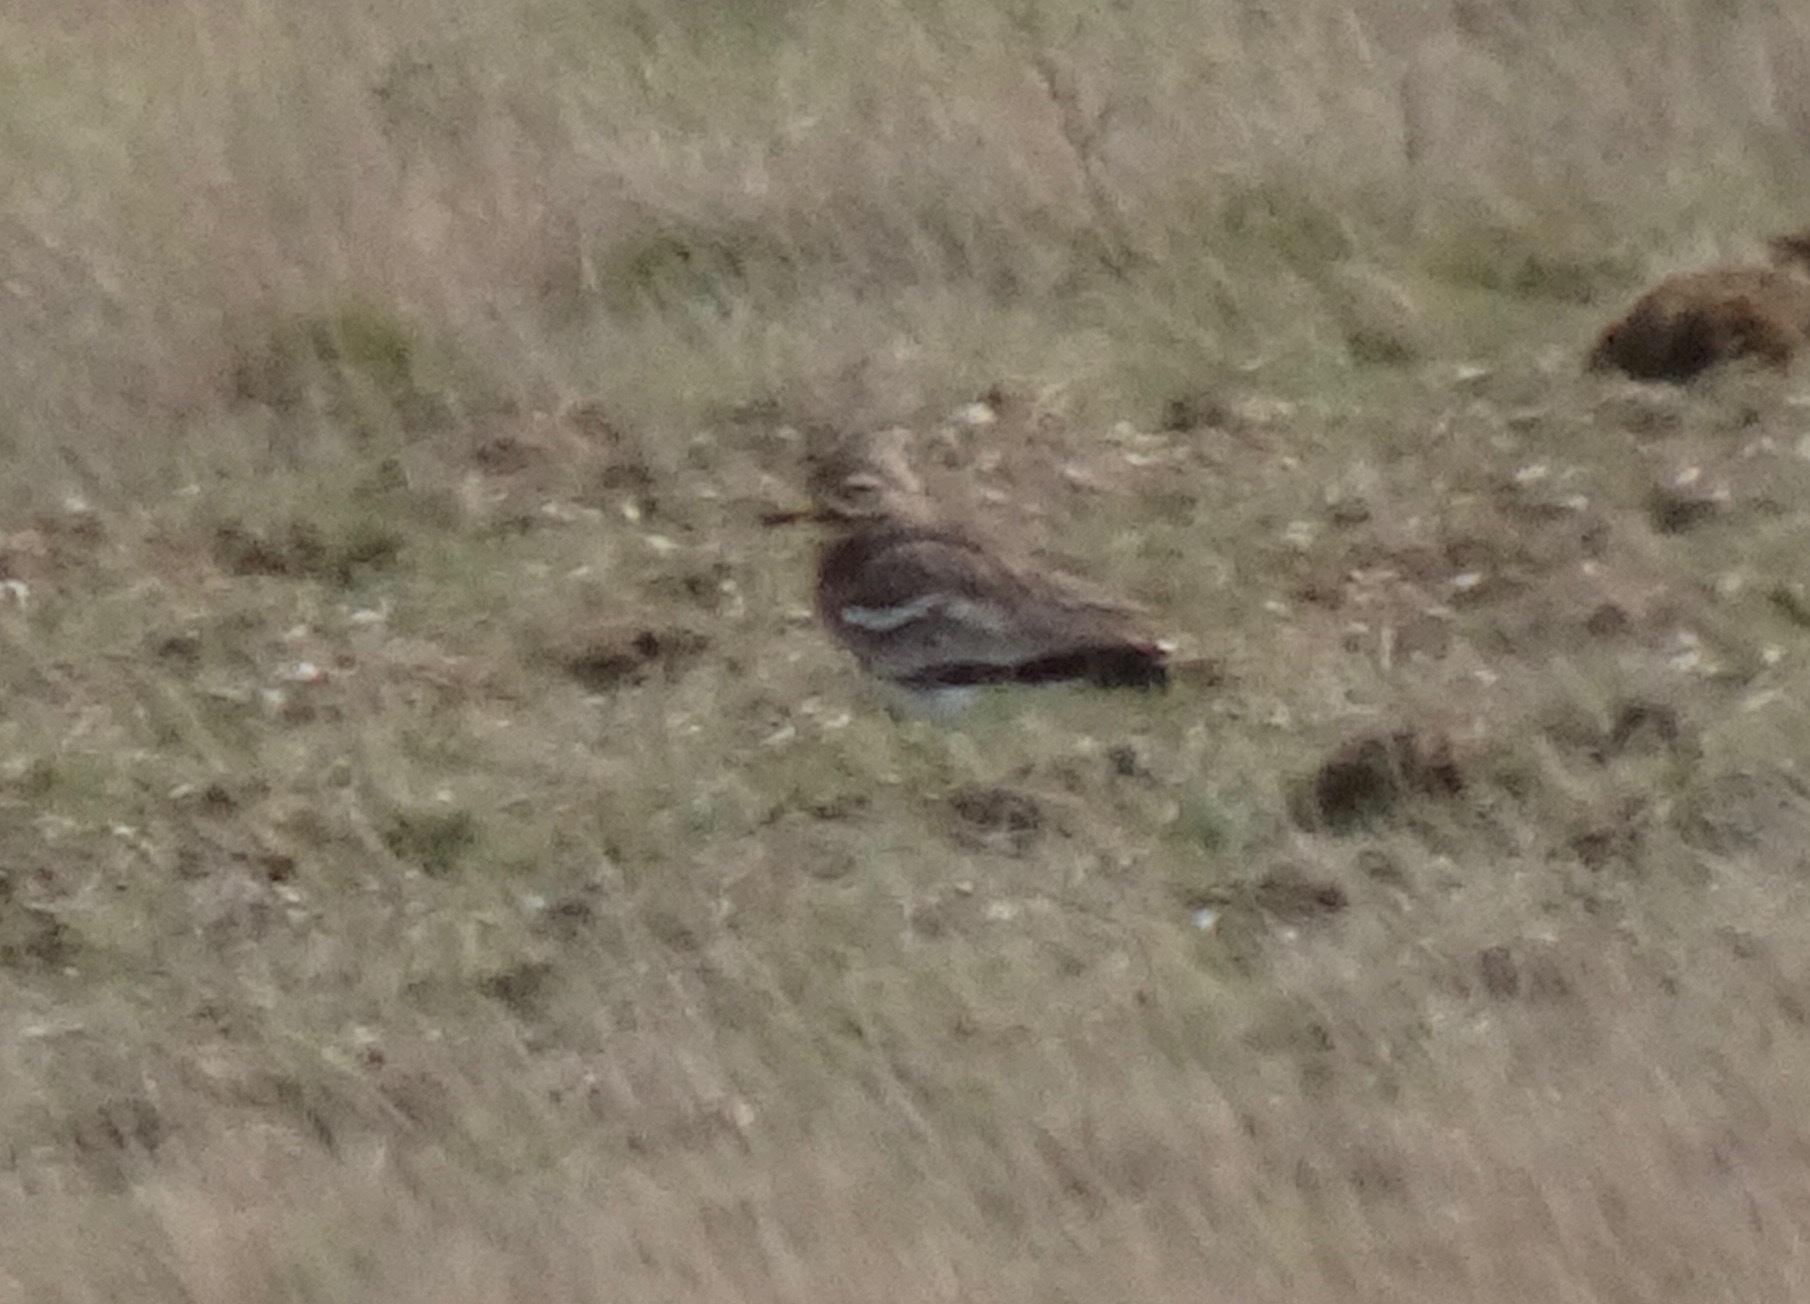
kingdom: Animalia
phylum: Chordata
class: Aves
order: Charadriiformes
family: Burhinidae
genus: Burhinus
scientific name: Burhinus oedicnemus
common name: Eurasian stone-curlew
